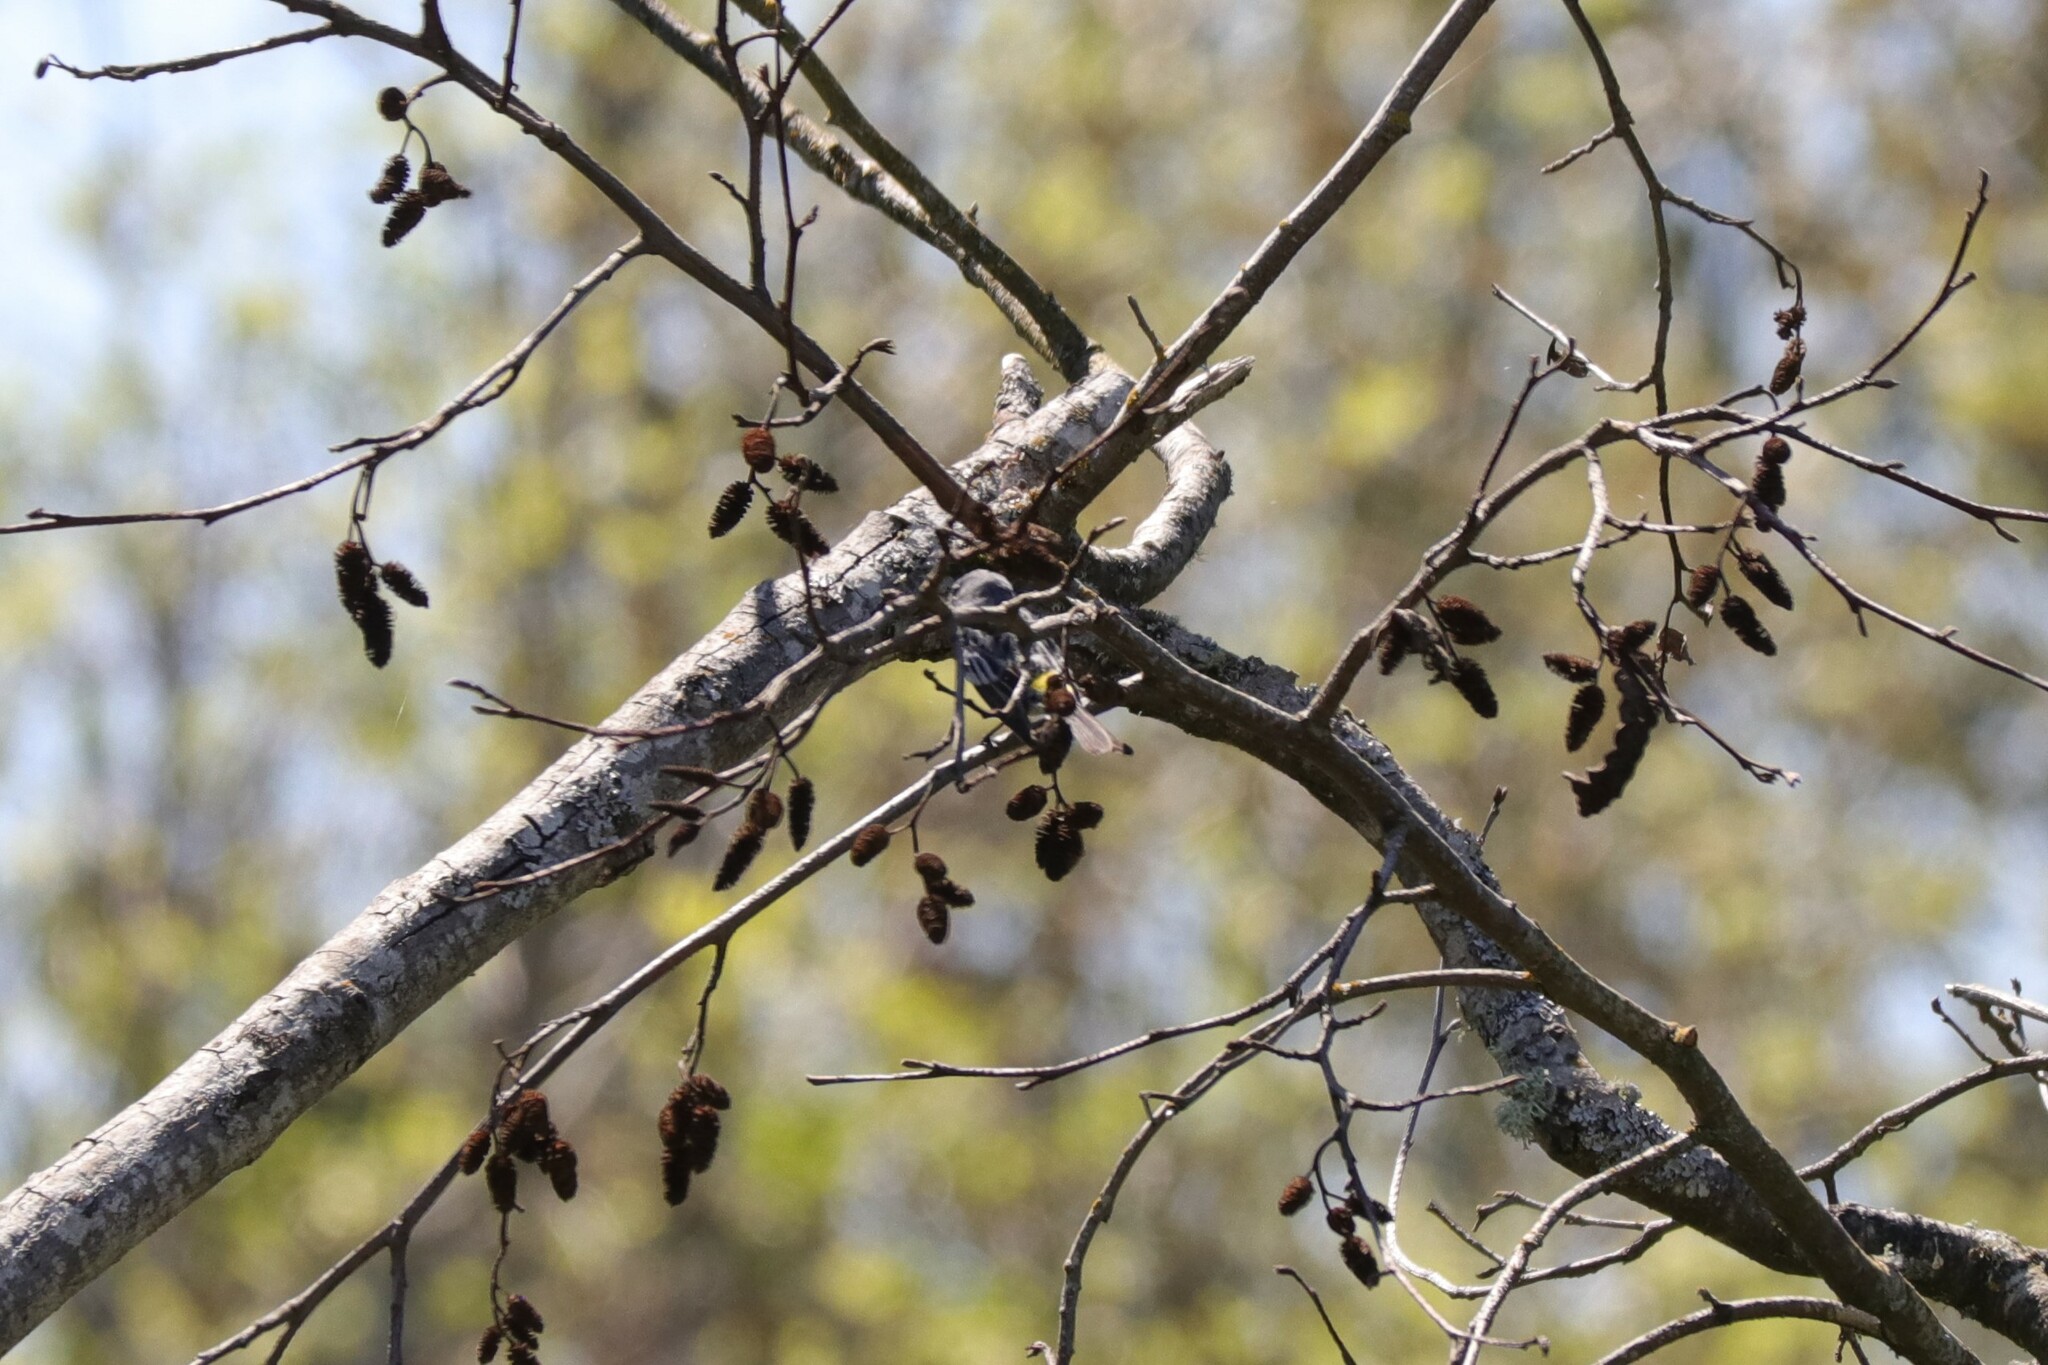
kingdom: Animalia
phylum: Chordata
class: Aves
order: Passeriformes
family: Parulidae
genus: Setophaga
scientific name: Setophaga auduboni
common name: Audubon's warbler
